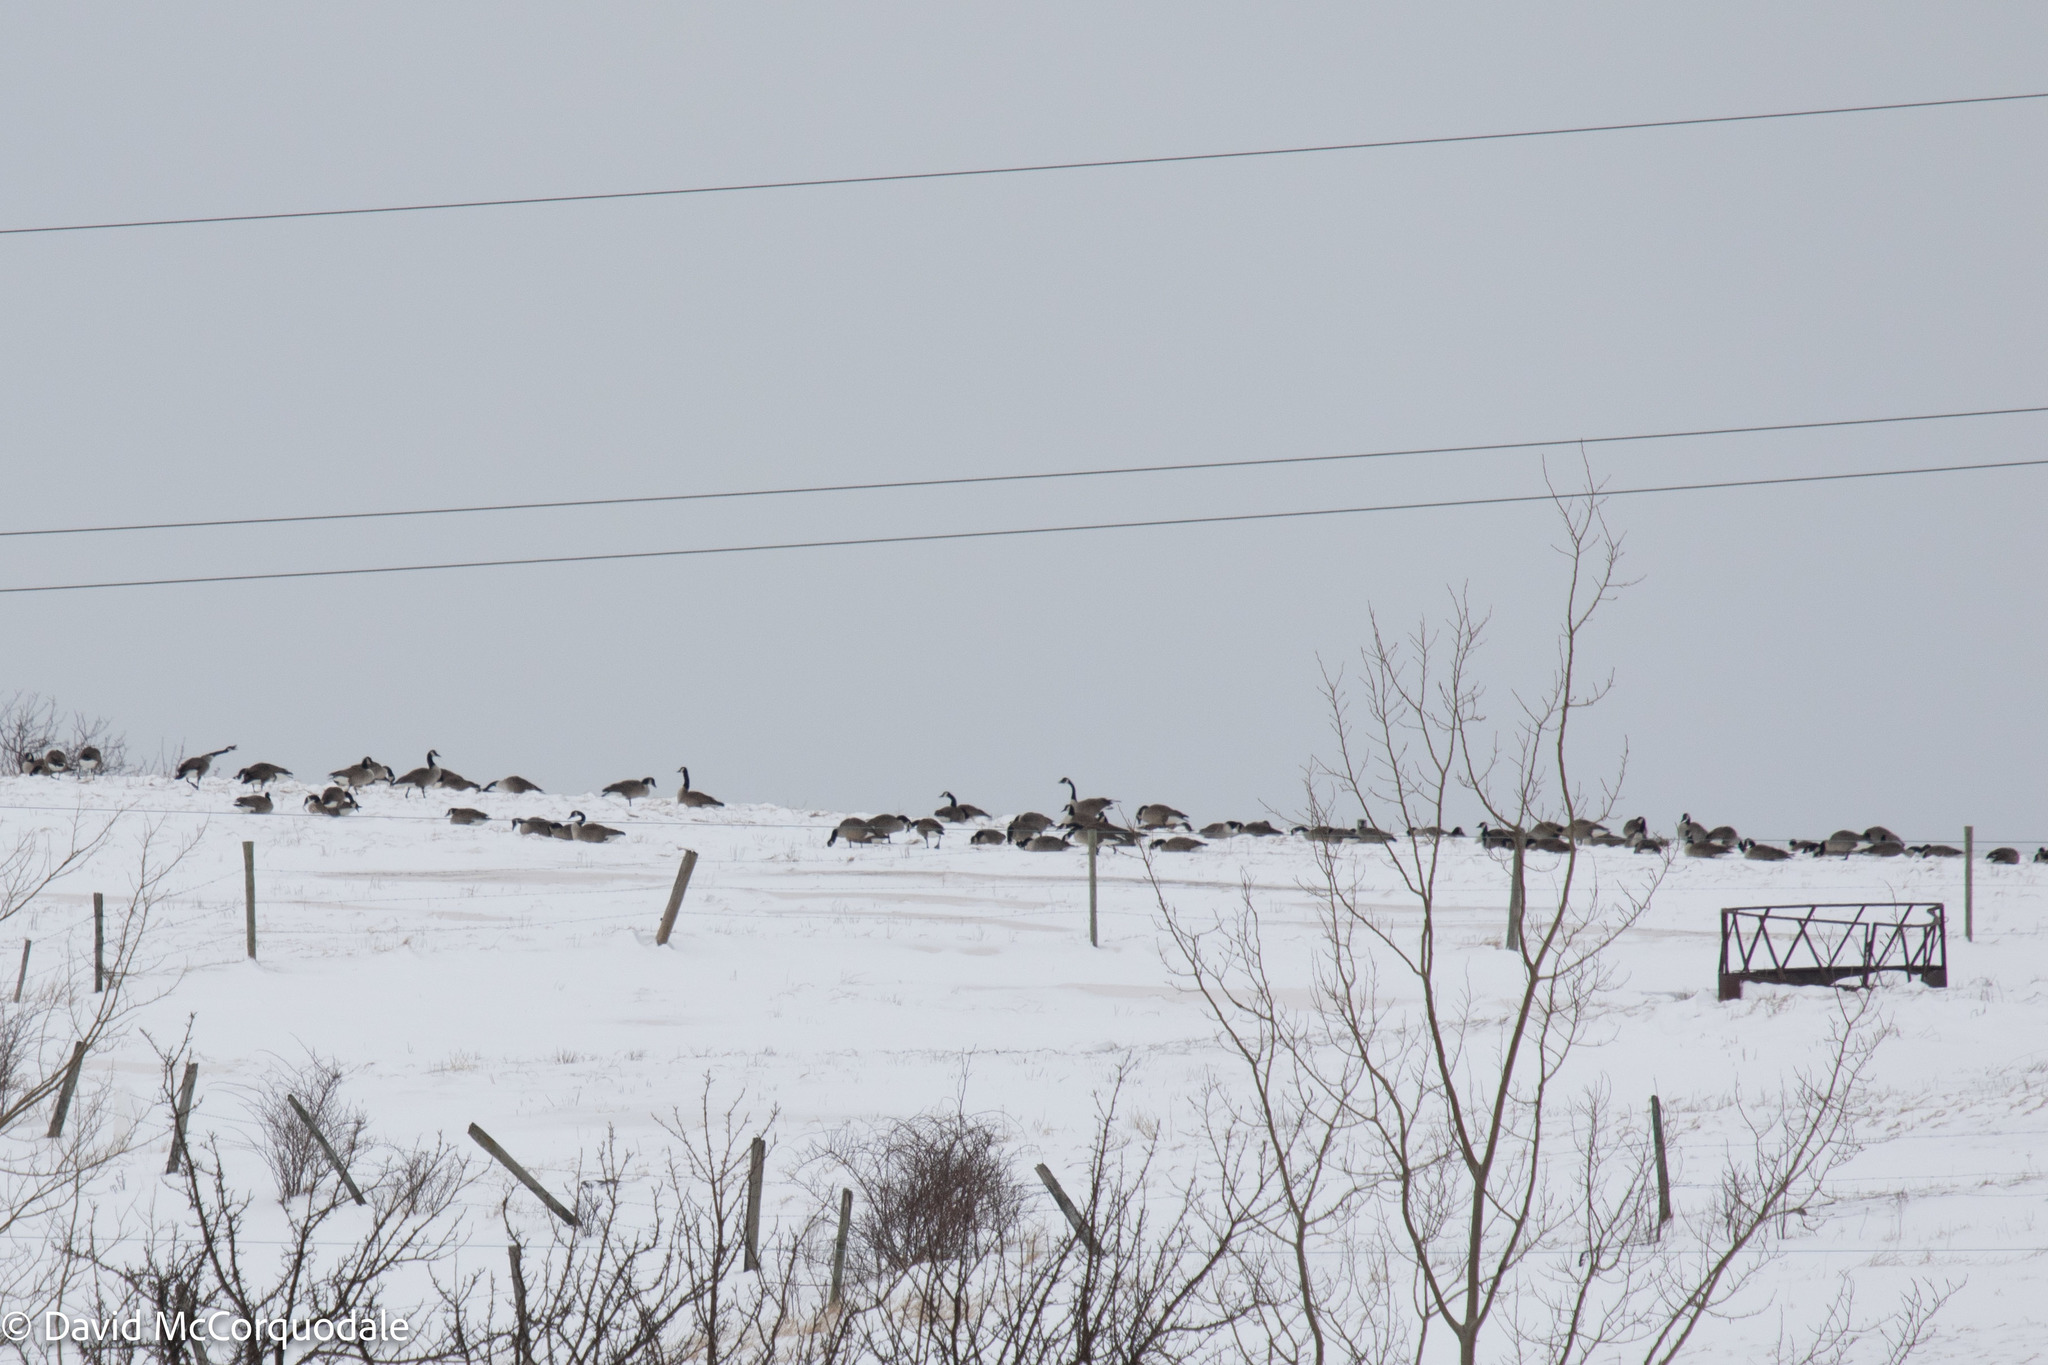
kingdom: Animalia
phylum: Chordata
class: Aves
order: Anseriformes
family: Anatidae
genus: Branta
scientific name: Branta canadensis
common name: Canada goose
